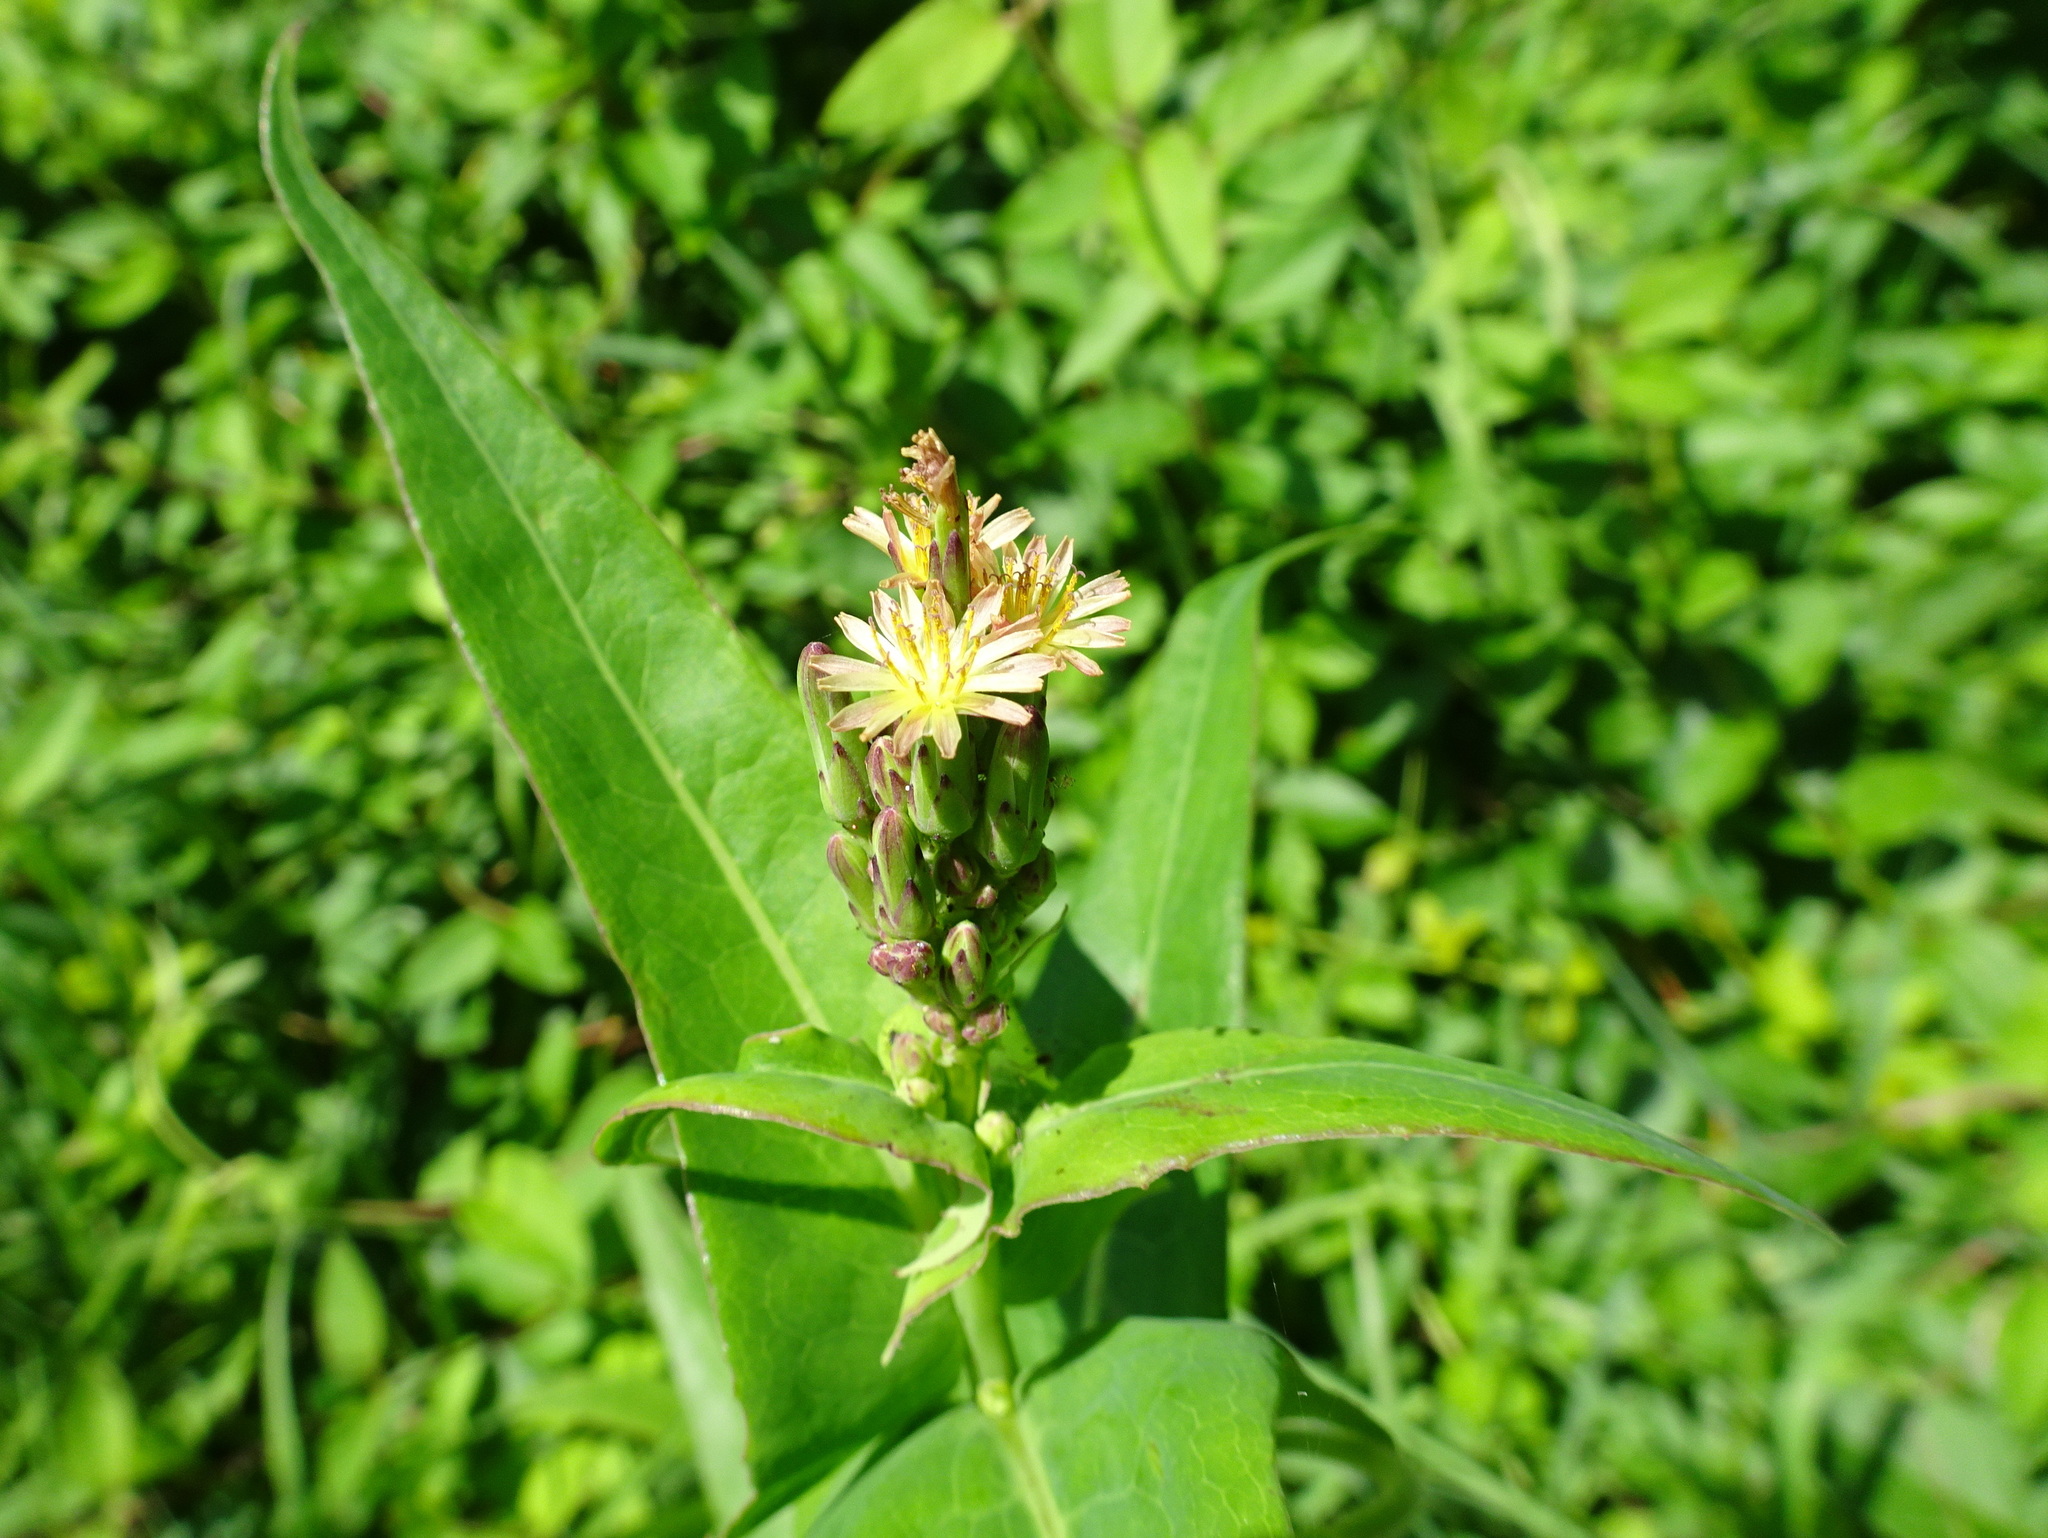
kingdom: Plantae
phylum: Tracheophyta
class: Magnoliopsida
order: Asterales
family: Asteraceae
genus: Lactuca
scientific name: Lactuca canadensis
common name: Canada lettuce
